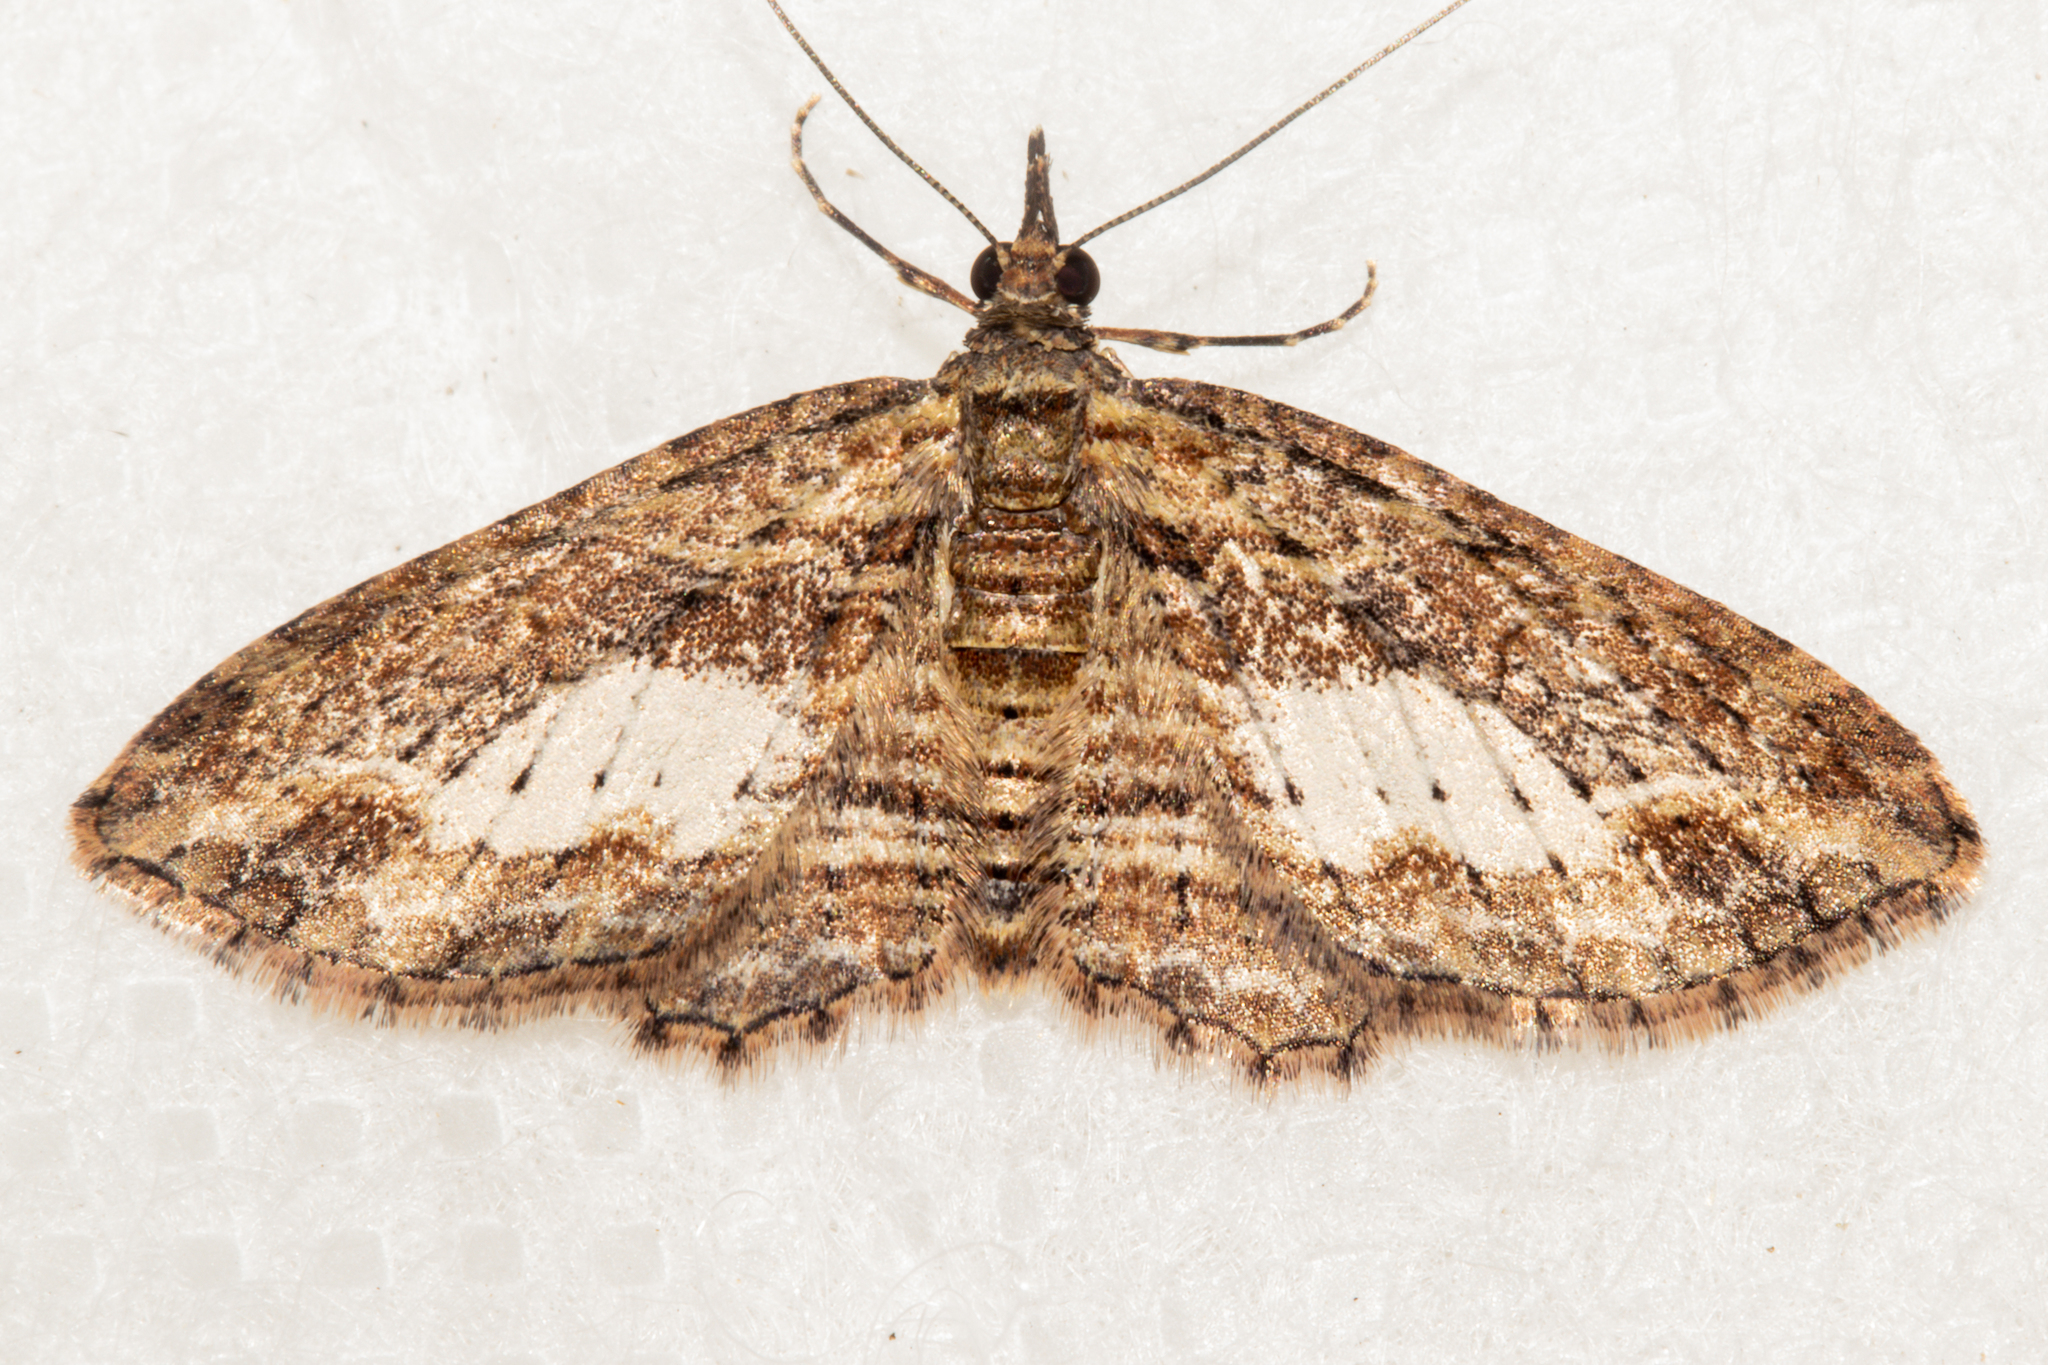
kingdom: Animalia
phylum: Arthropoda
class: Insecta
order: Lepidoptera
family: Geometridae
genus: Chloroclystis
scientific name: Chloroclystis filata
